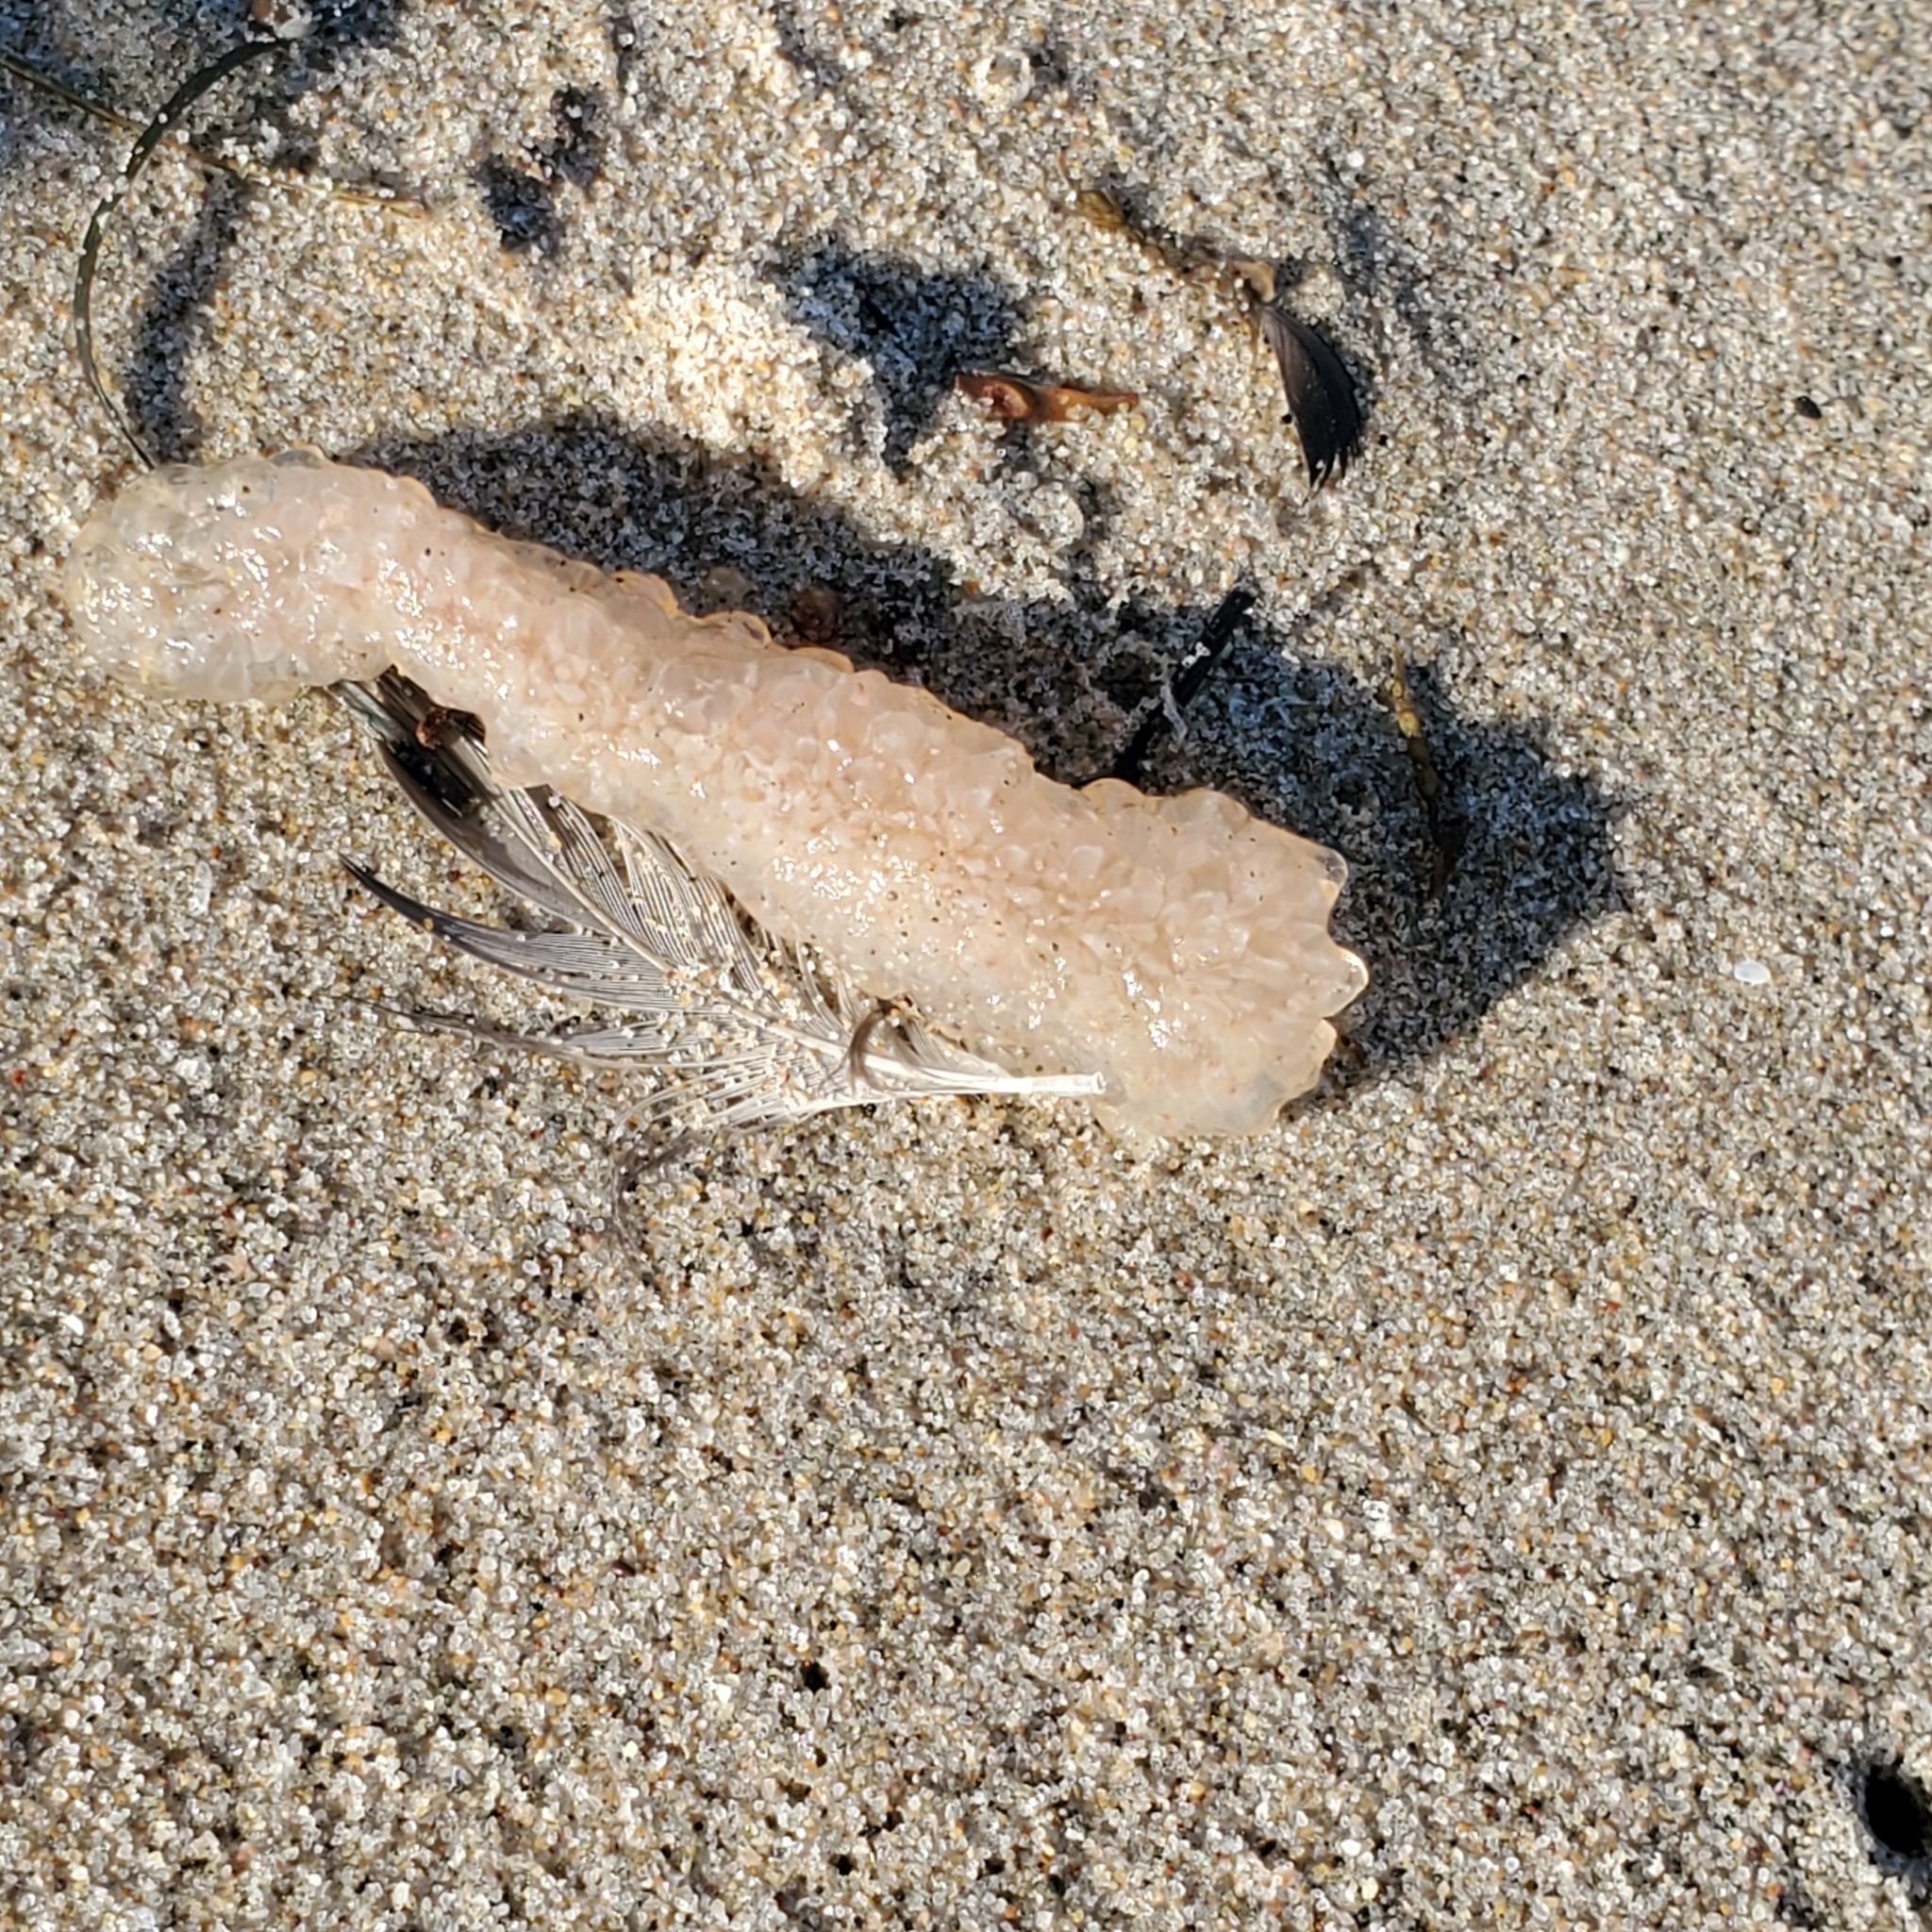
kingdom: Animalia
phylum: Chordata
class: Thaliacea
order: Pyrosomatida
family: Pyrosomatidae
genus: Pyrosoma
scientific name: Pyrosoma atlanticum
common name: Atlantic pyrosomes
